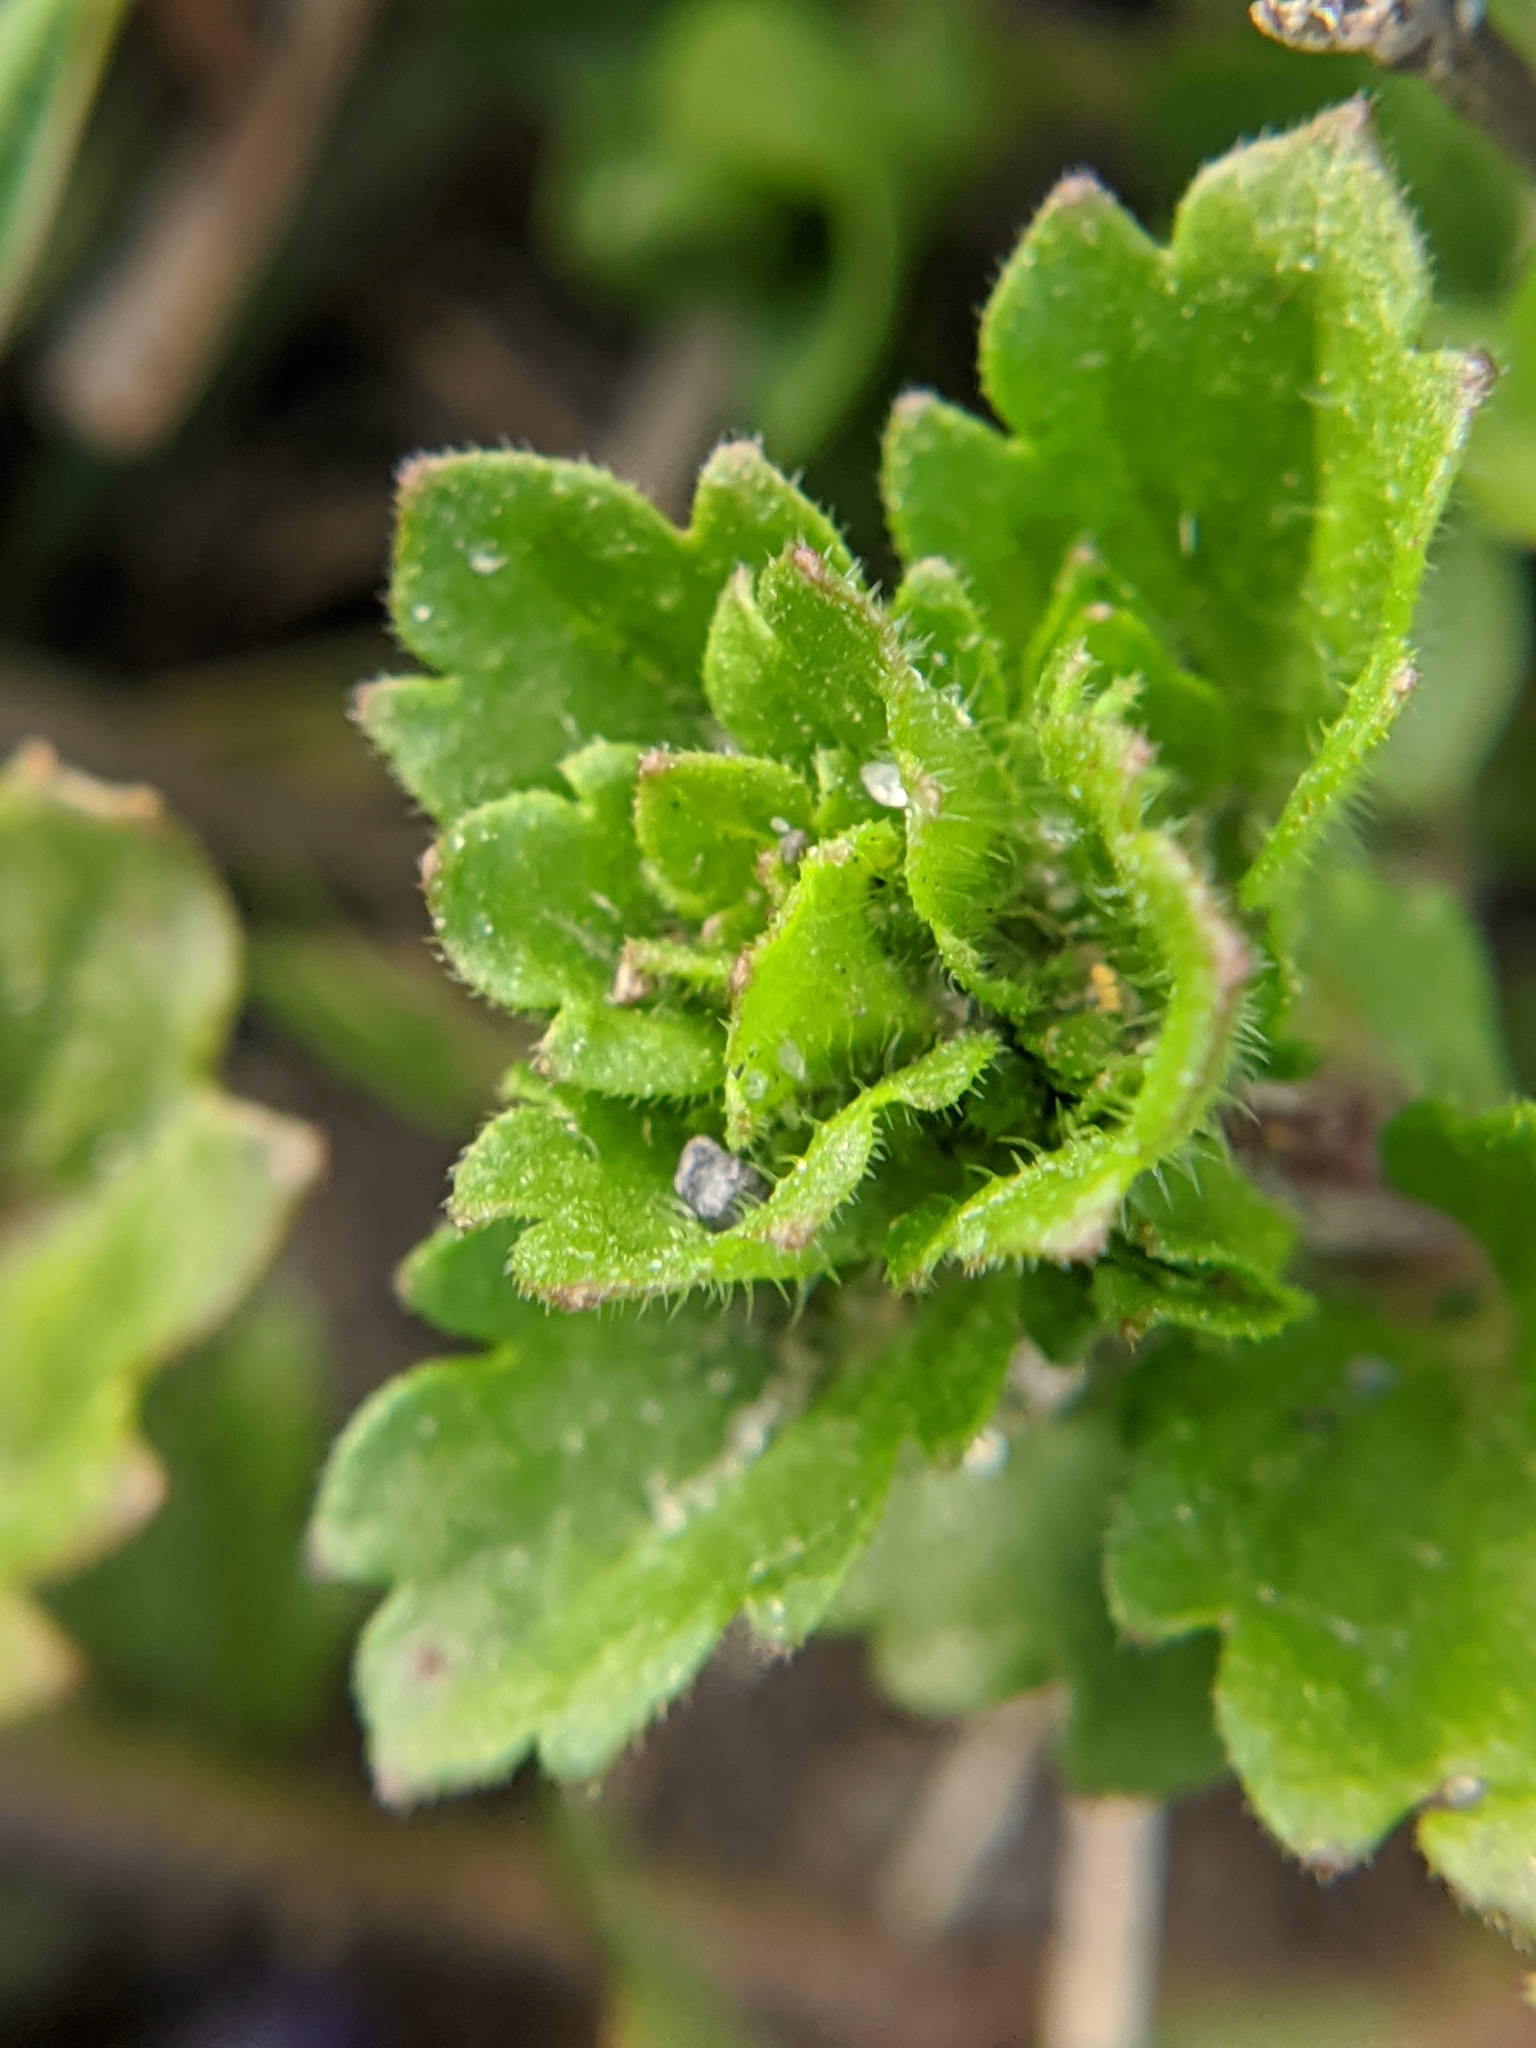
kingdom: Plantae
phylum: Tracheophyta
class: Magnoliopsida
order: Lamiales
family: Plantaginaceae
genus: Veronica
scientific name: Veronica persica
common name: Common field-speedwell
